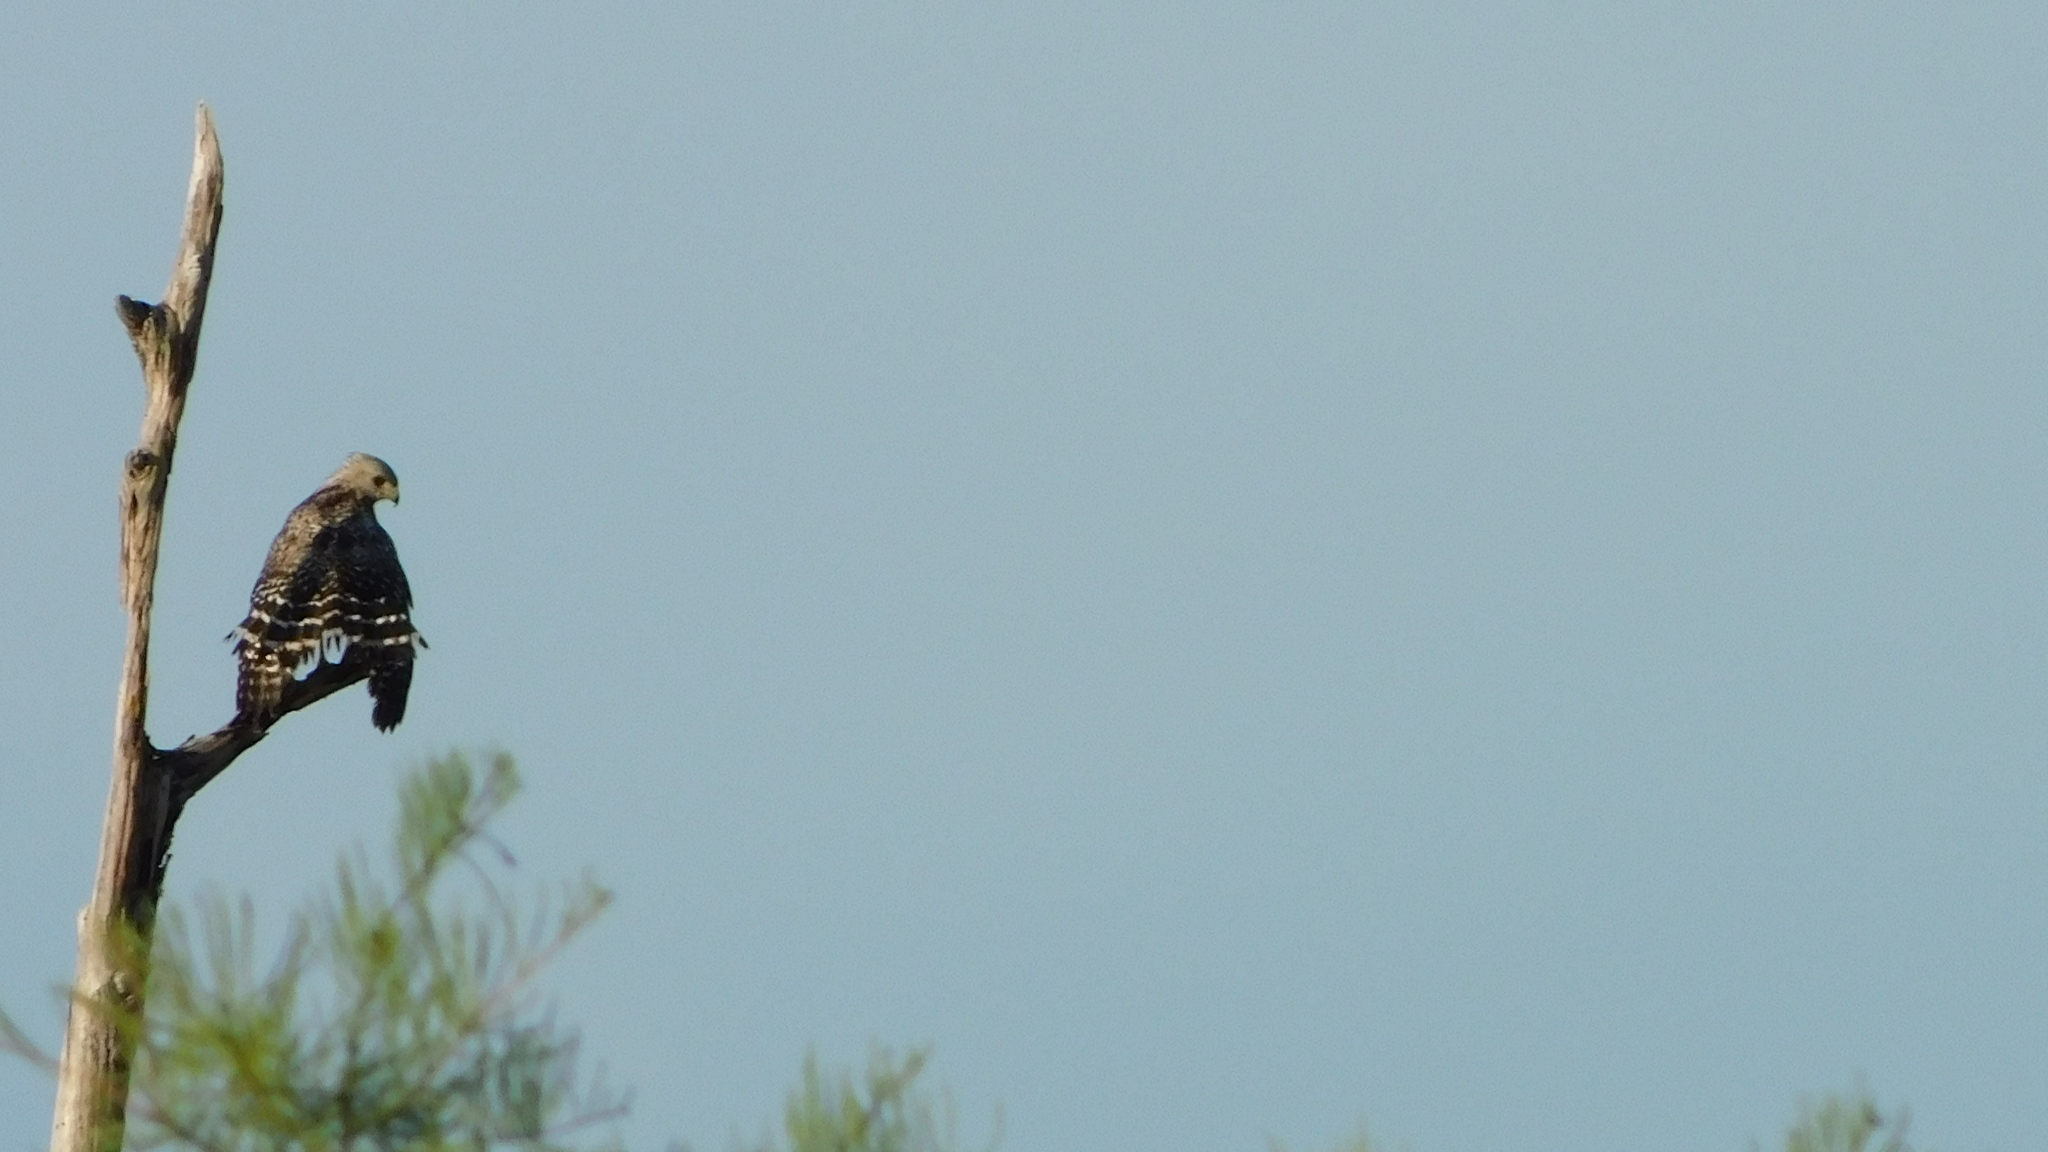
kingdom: Animalia
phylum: Chordata
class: Aves
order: Accipitriformes
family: Accipitridae
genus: Buteo
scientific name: Buteo lineatus
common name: Red-shouldered hawk
